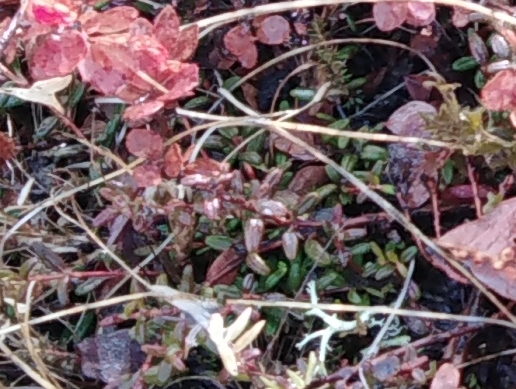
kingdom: Plantae
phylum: Tracheophyta
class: Magnoliopsida
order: Ericales
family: Ericaceae
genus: Kalmia
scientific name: Kalmia procumbens
